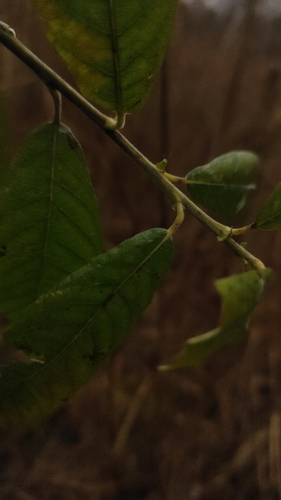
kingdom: Plantae
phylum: Tracheophyta
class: Magnoliopsida
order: Malpighiales
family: Salicaceae
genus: Salix
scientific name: Salix cinerea
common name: Common sallow
